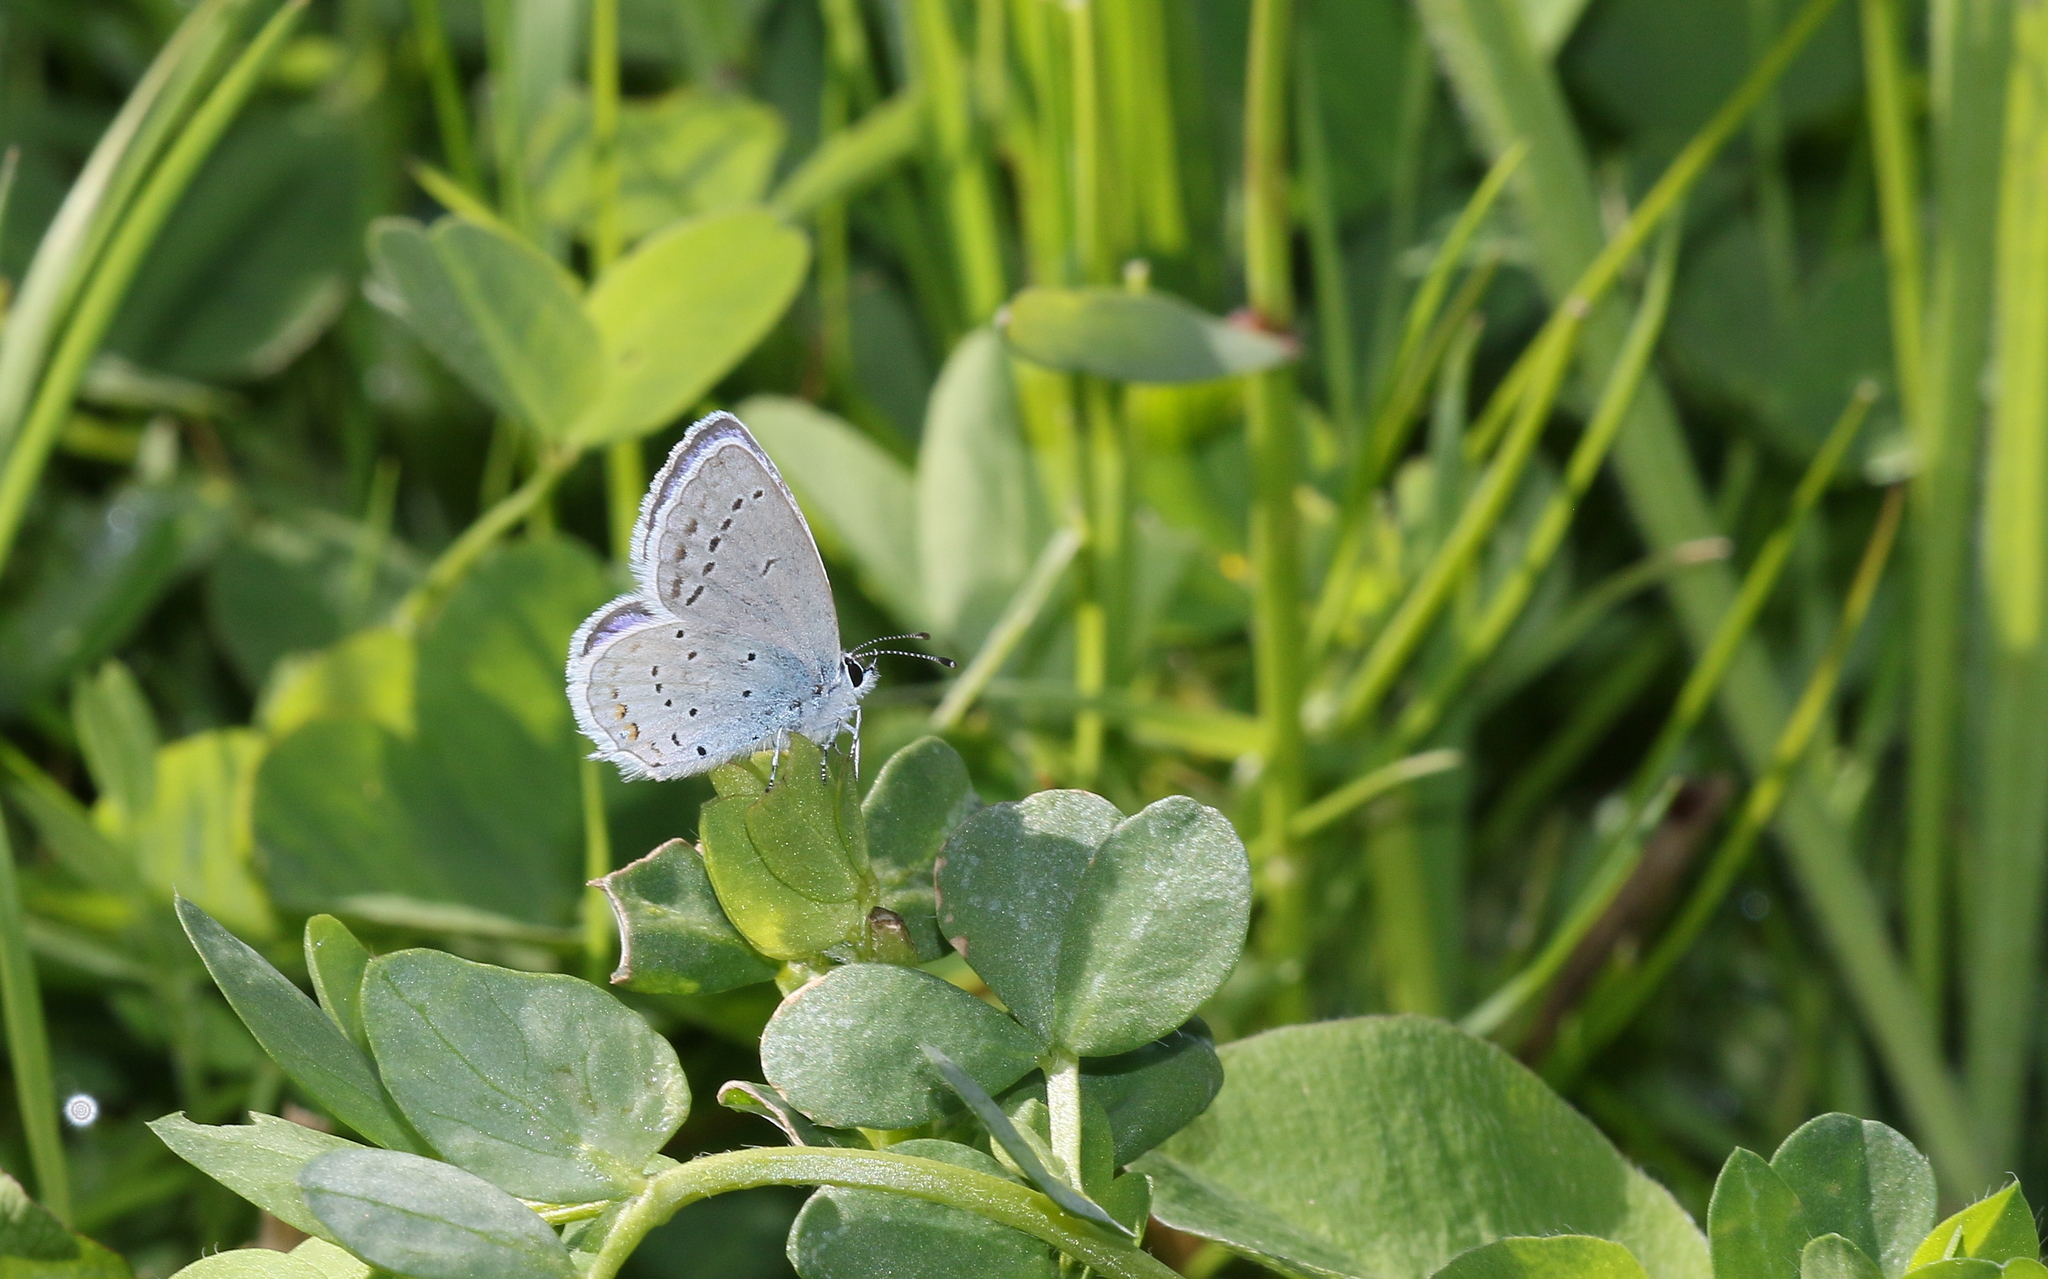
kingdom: Animalia
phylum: Arthropoda
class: Insecta
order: Lepidoptera
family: Lycaenidae
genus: Elkalyce
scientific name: Elkalyce argiades
